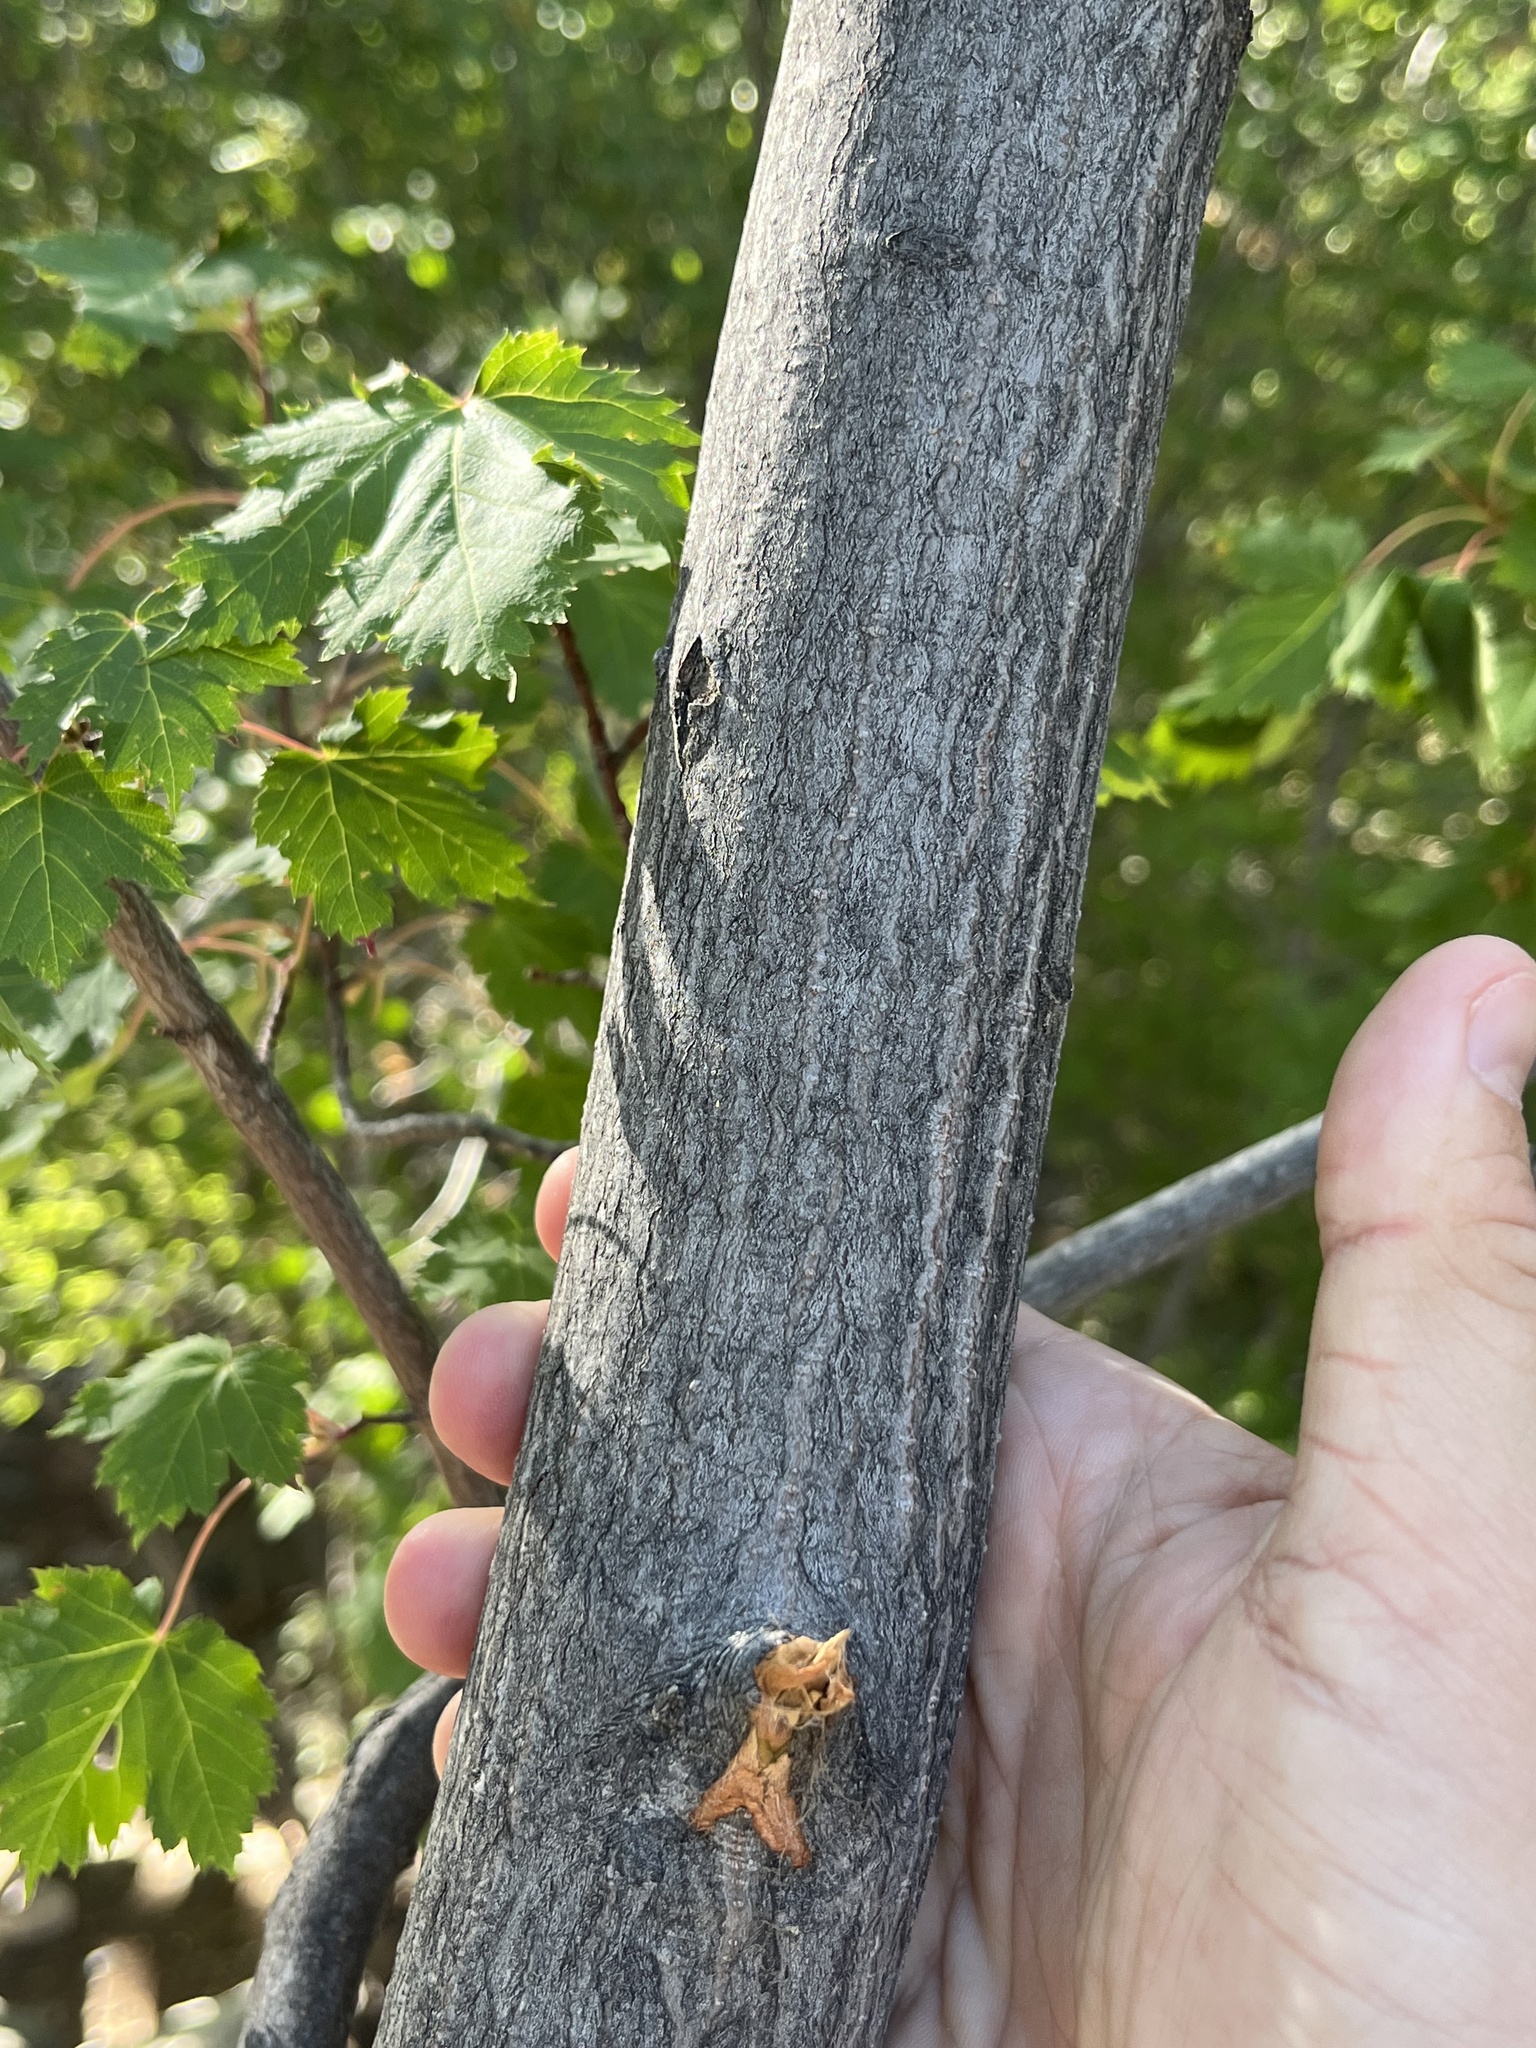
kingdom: Plantae
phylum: Tracheophyta
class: Magnoliopsida
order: Sapindales
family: Sapindaceae
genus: Acer
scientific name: Acer glabrum
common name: Rocky mountain maple
